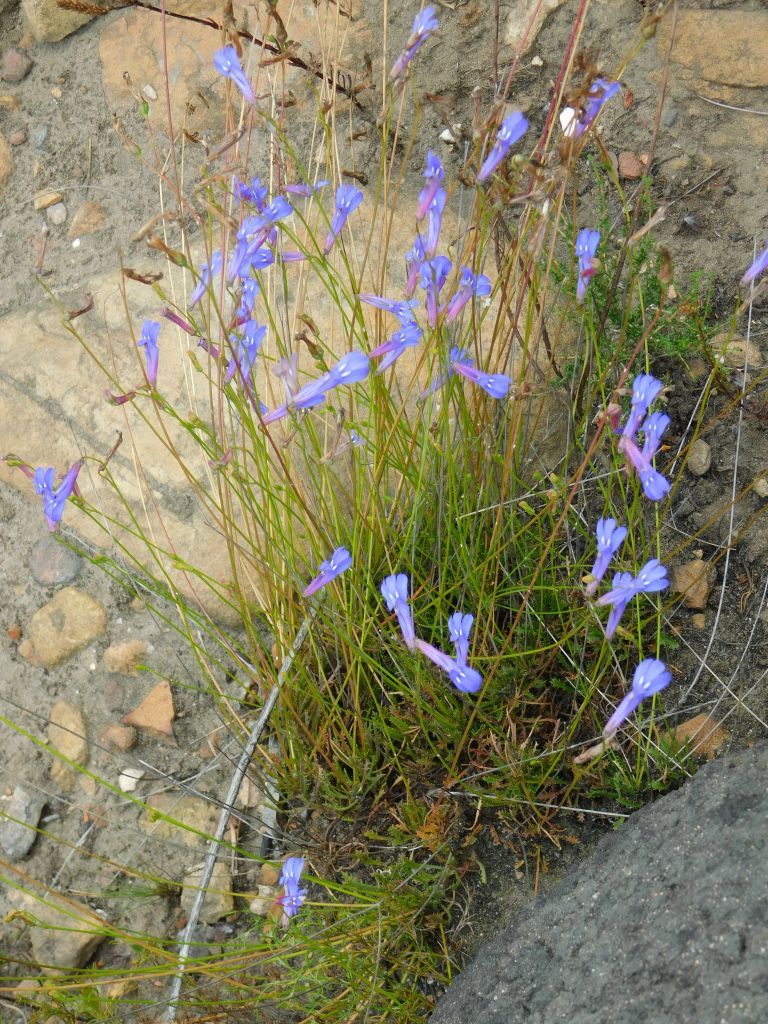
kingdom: Plantae
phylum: Tracheophyta
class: Magnoliopsida
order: Asterales
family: Campanulaceae
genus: Lobelia
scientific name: Lobelia coronopifolia
